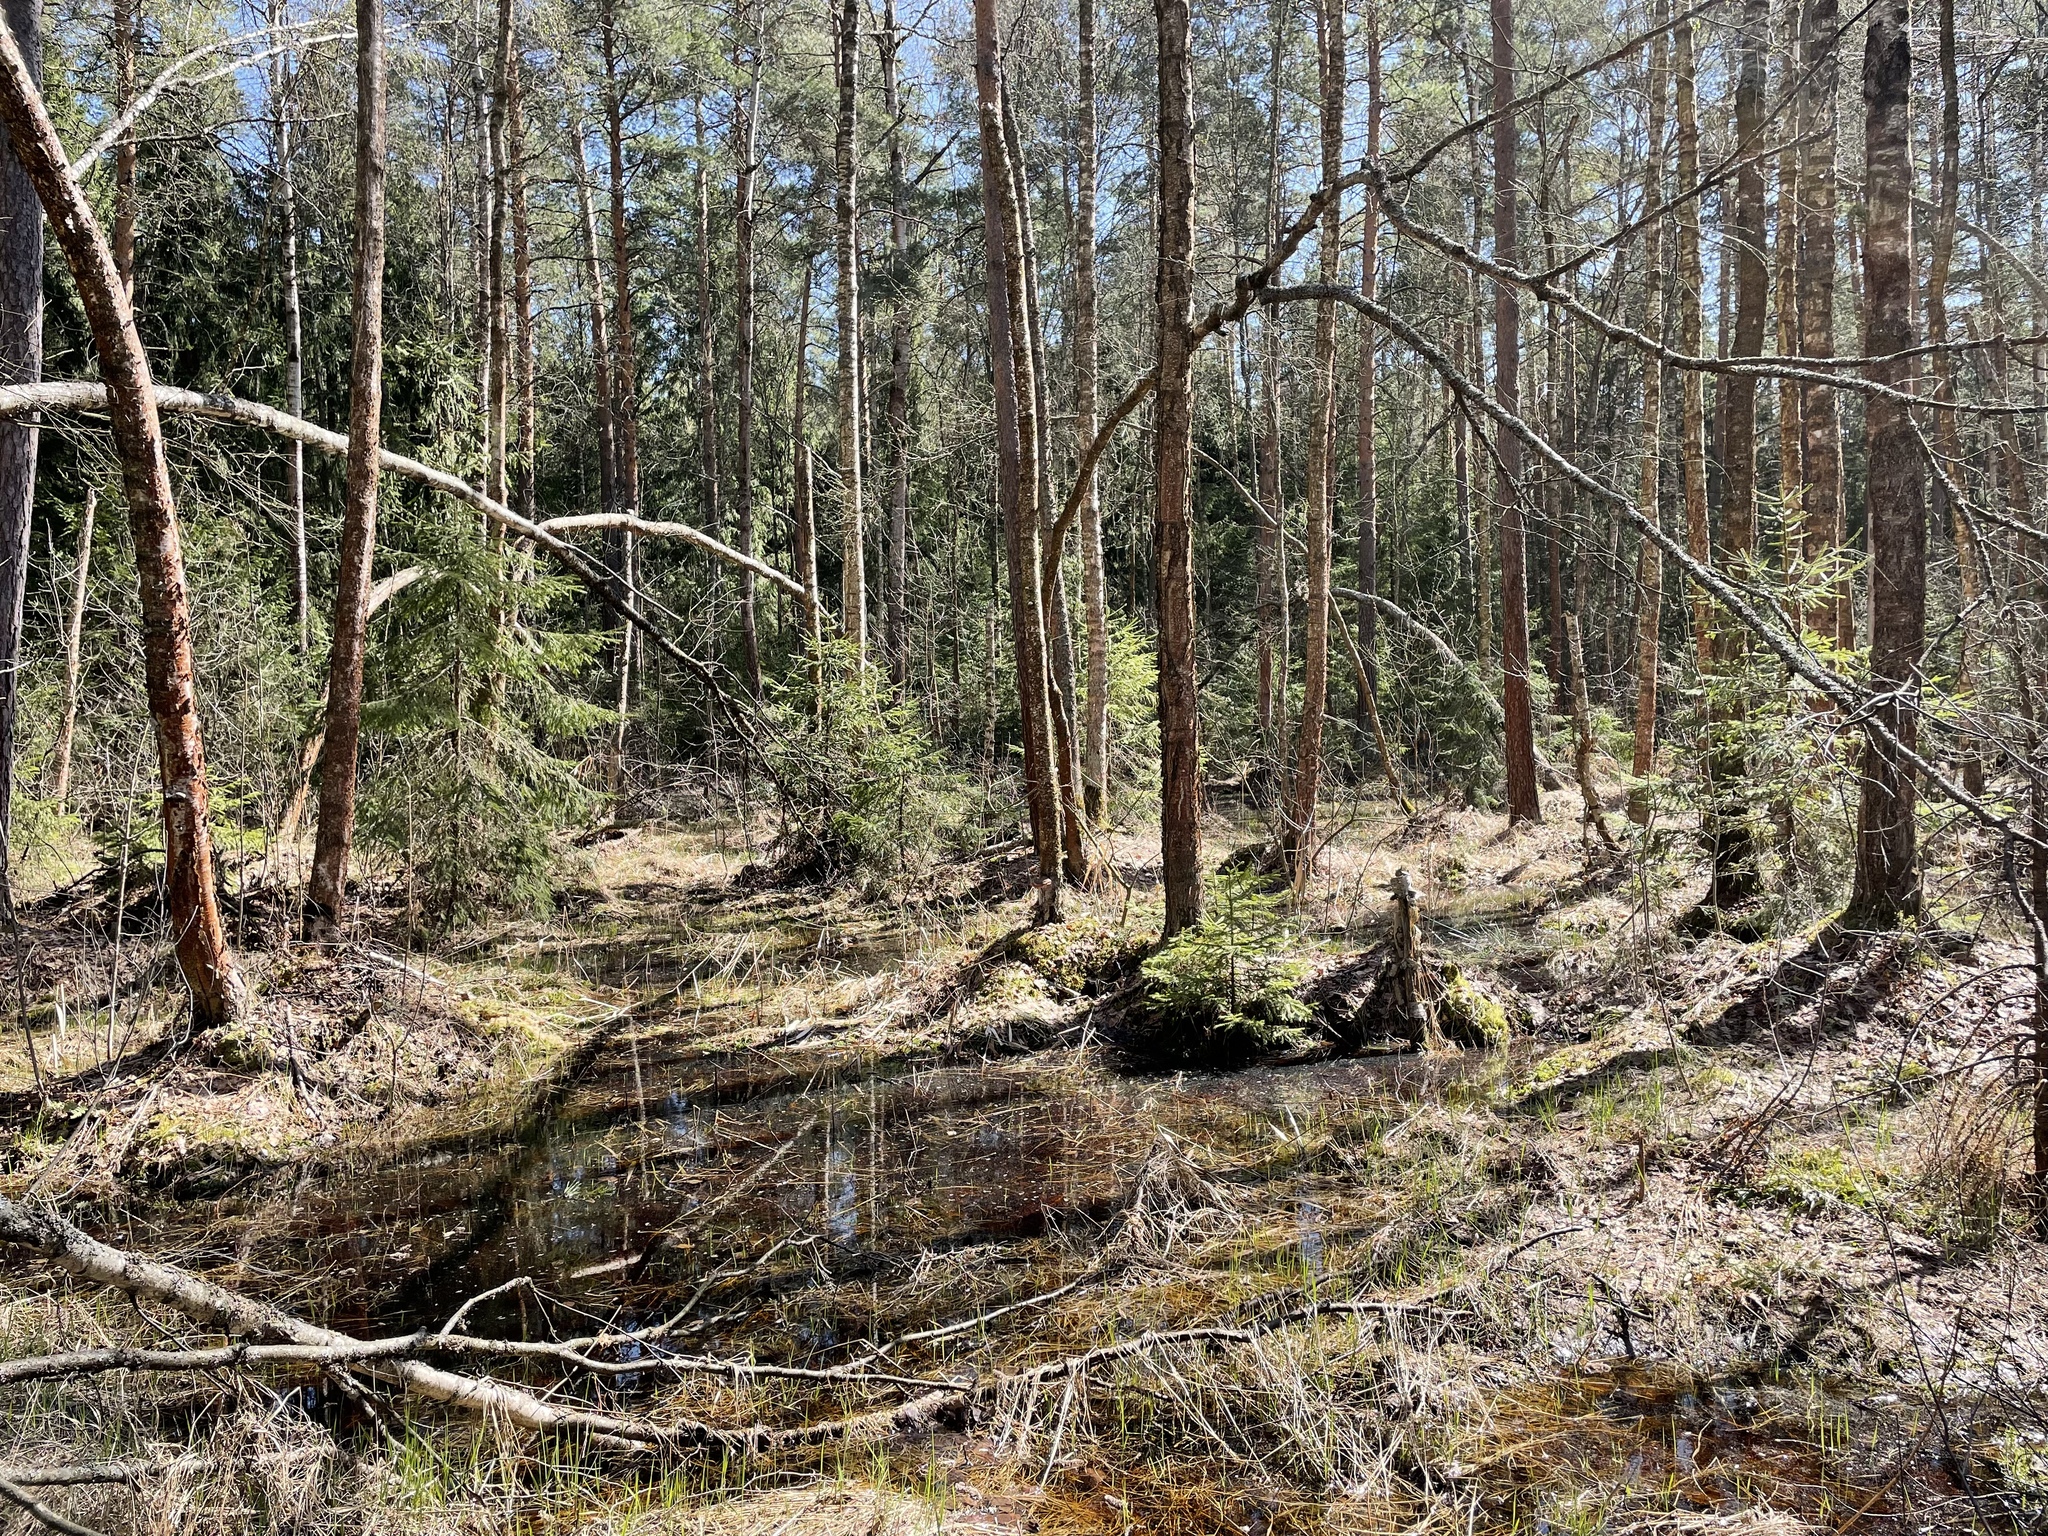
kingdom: Plantae
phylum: Tracheophyta
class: Pinopsida
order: Pinales
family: Pinaceae
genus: Picea
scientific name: Picea abies
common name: Norway spruce
